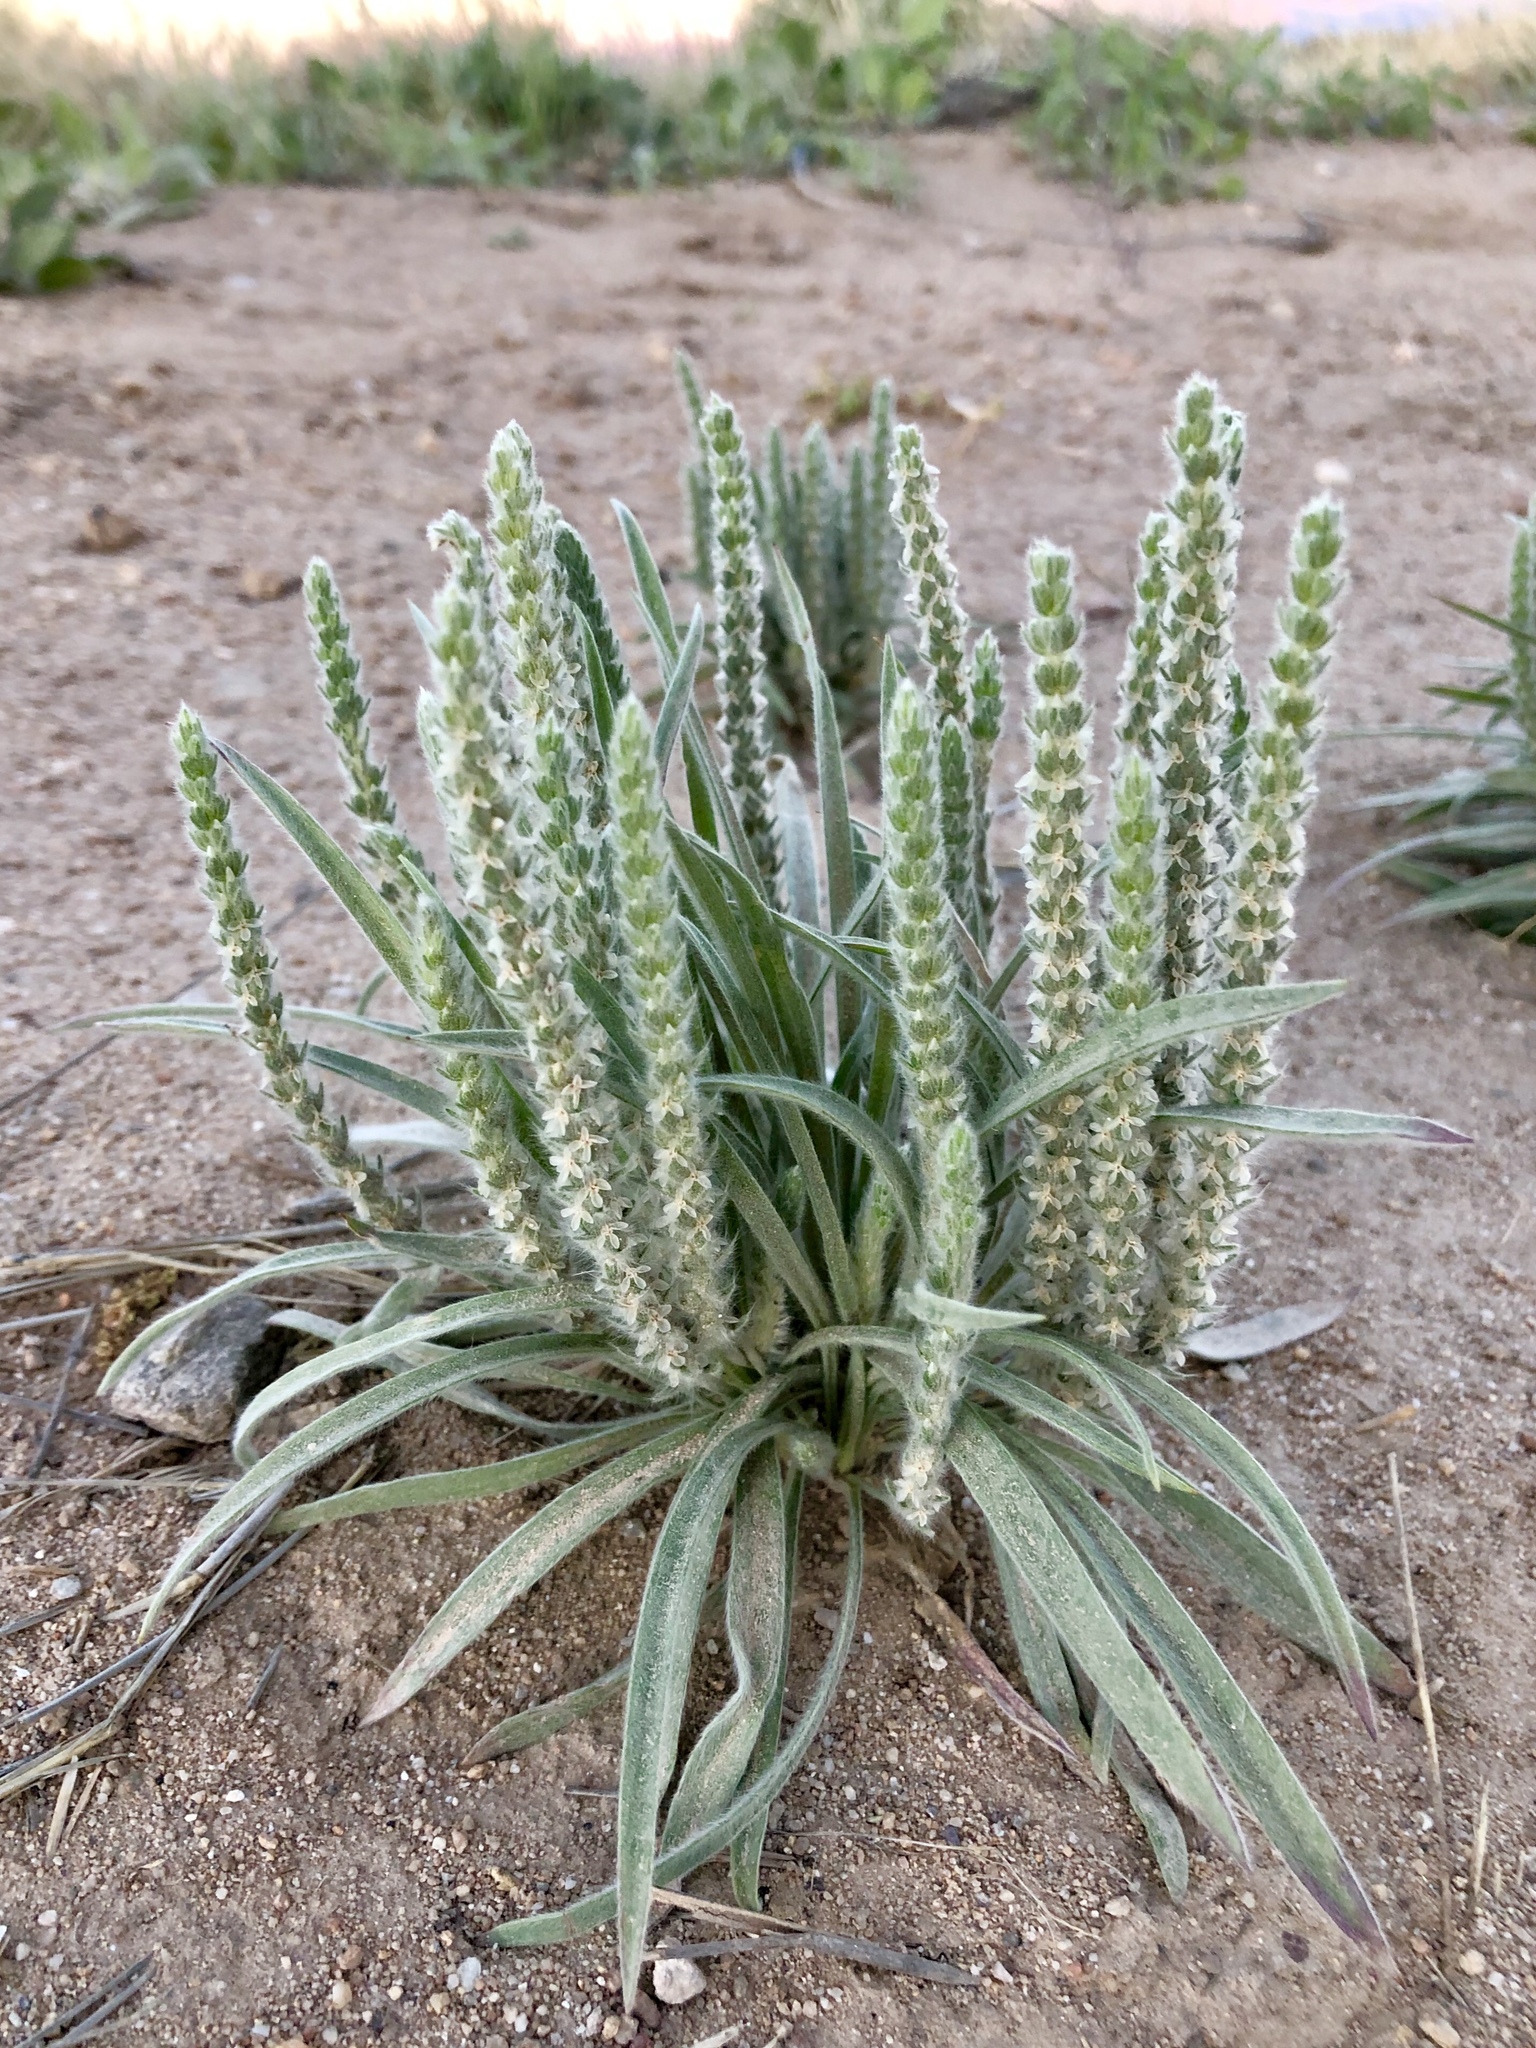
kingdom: Plantae
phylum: Tracheophyta
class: Magnoliopsida
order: Lamiales
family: Plantaginaceae
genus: Plantago
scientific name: Plantago patagonica
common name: Patagonia indian-wheat
